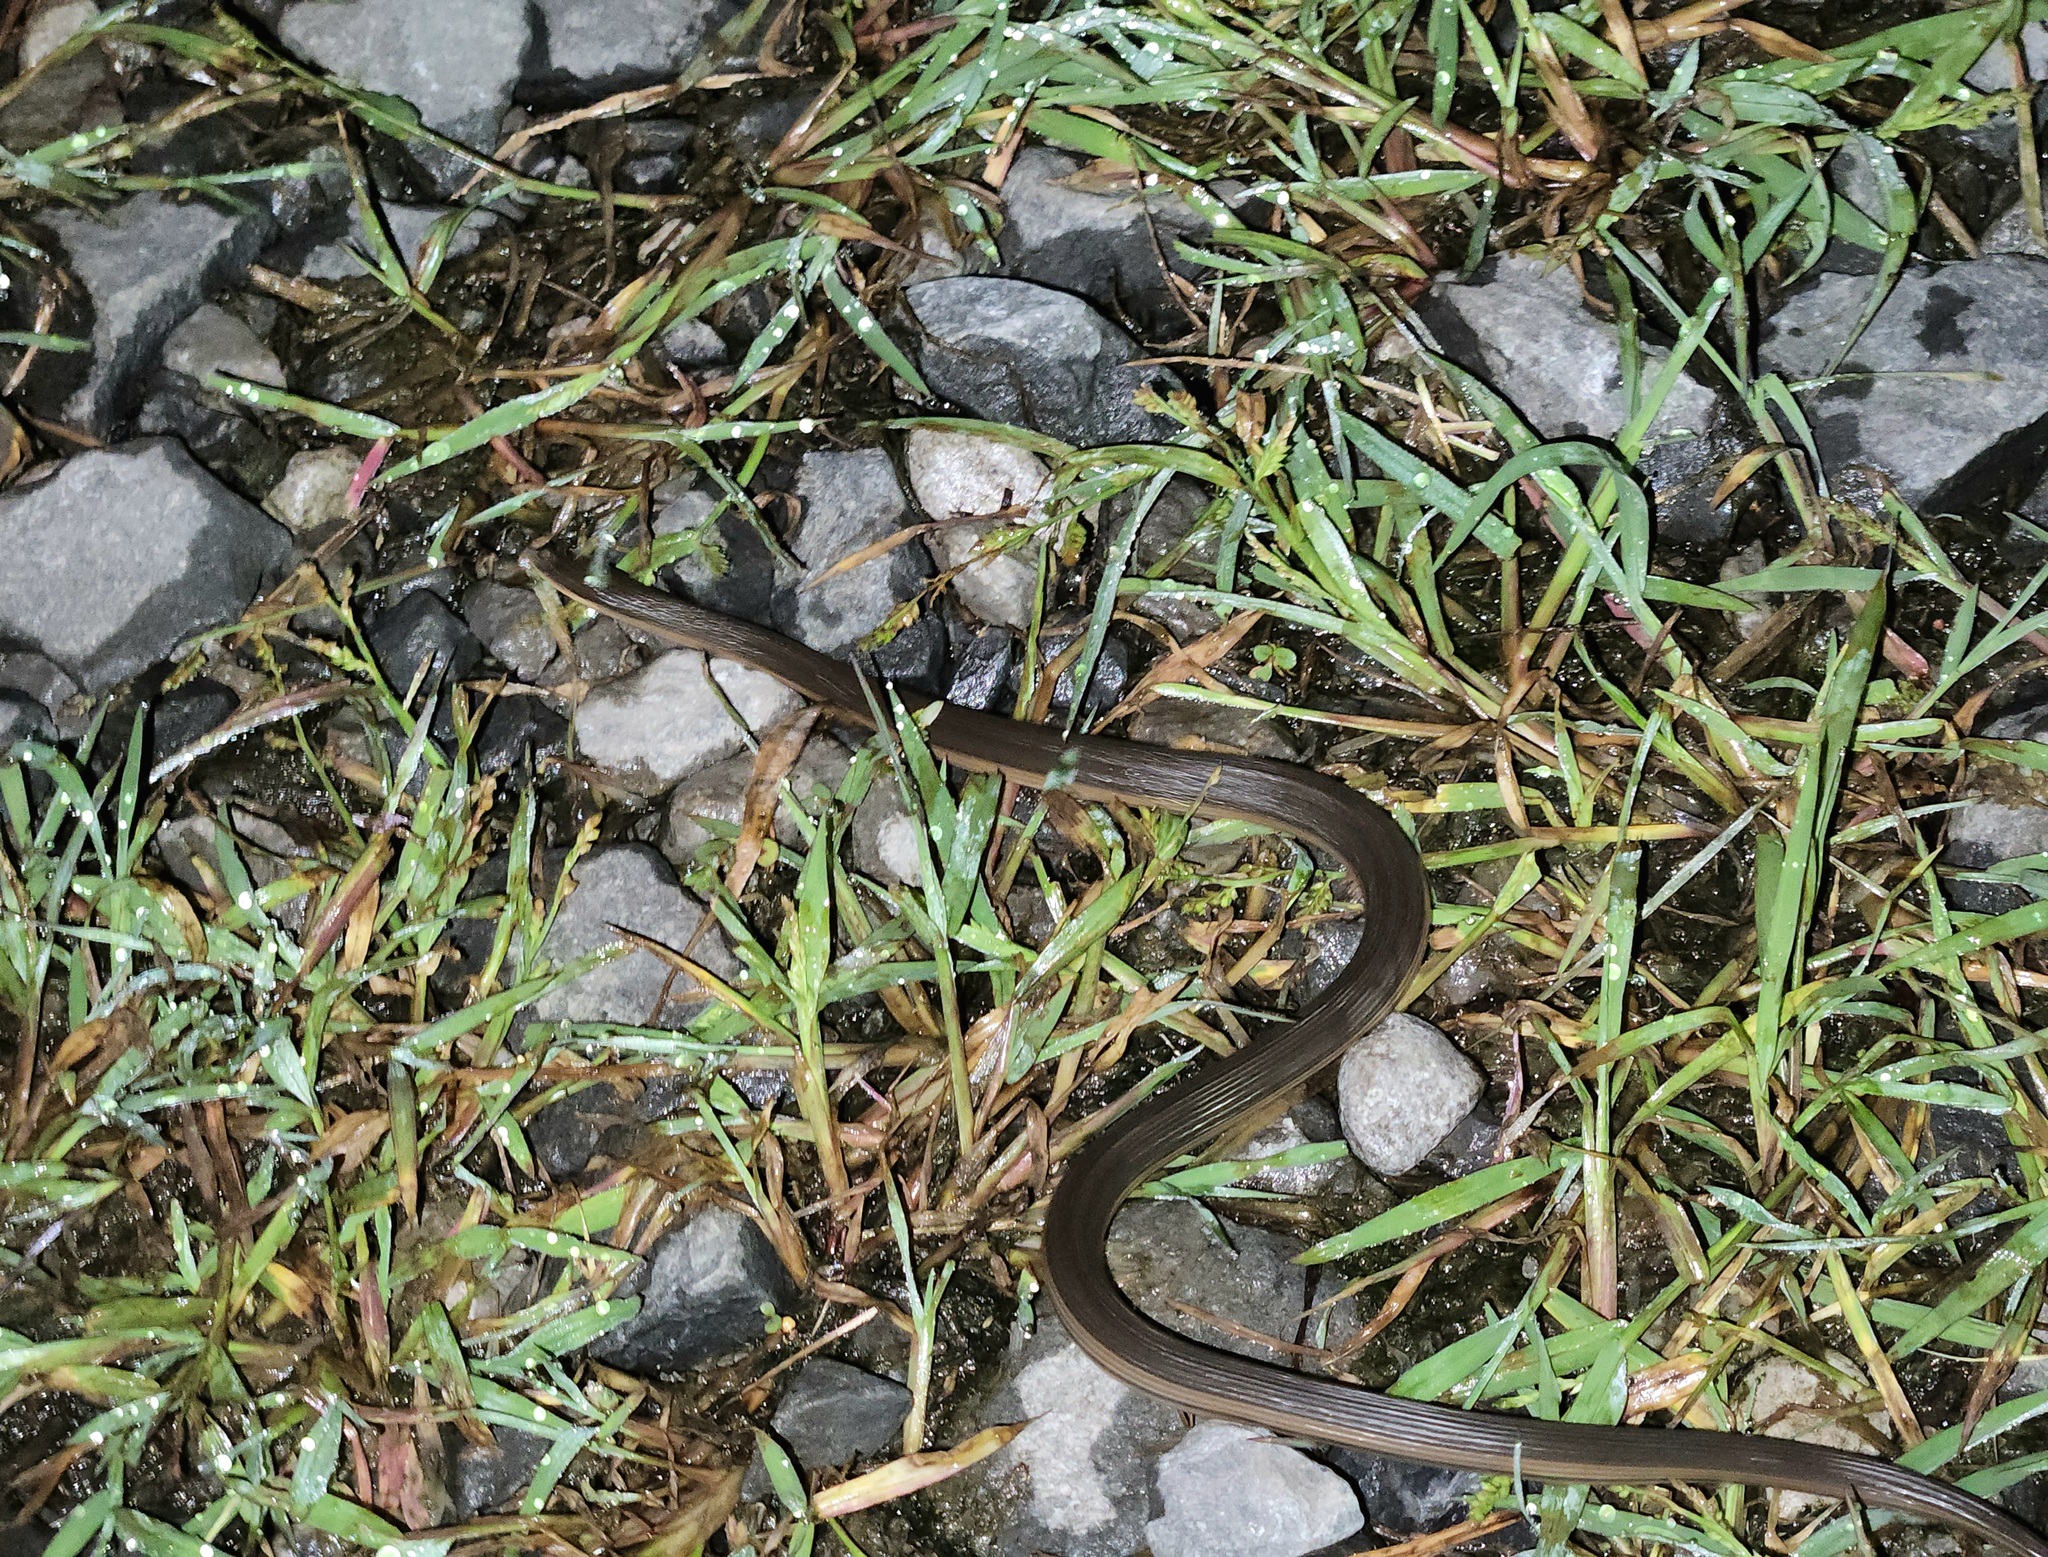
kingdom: Animalia
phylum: Chordata
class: Squamata
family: Colubridae
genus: Regina
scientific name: Regina grahamii
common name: Graham's crayfish snake
